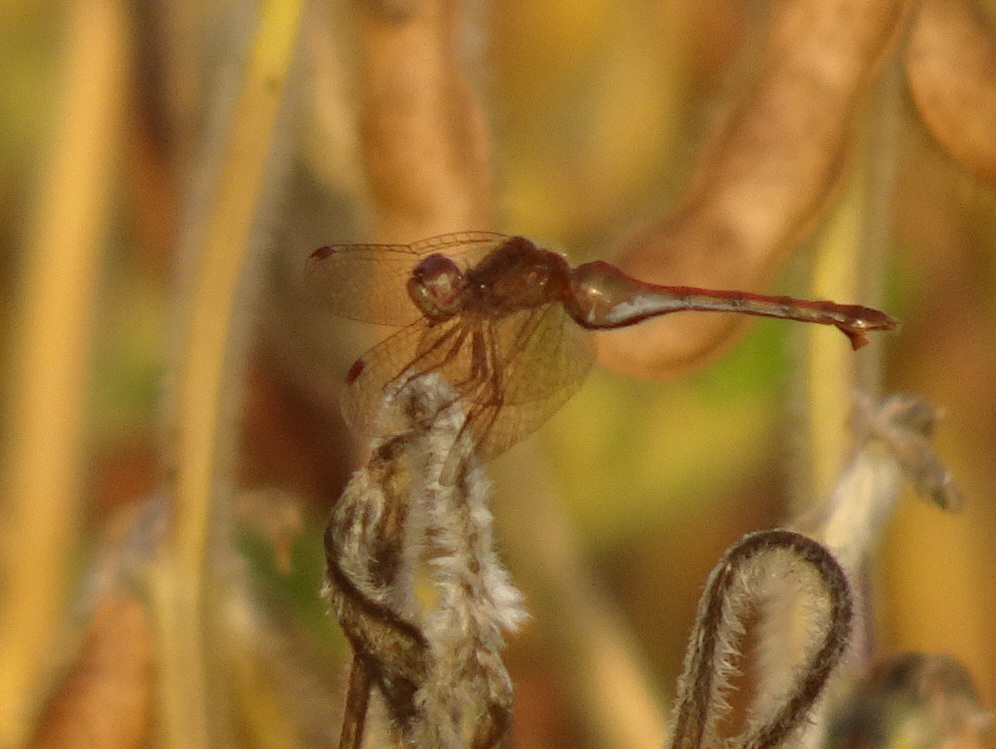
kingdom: Animalia
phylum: Arthropoda
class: Insecta
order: Odonata
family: Libellulidae
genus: Sympetrum
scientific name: Sympetrum vicinum
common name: Autumn meadowhawk
